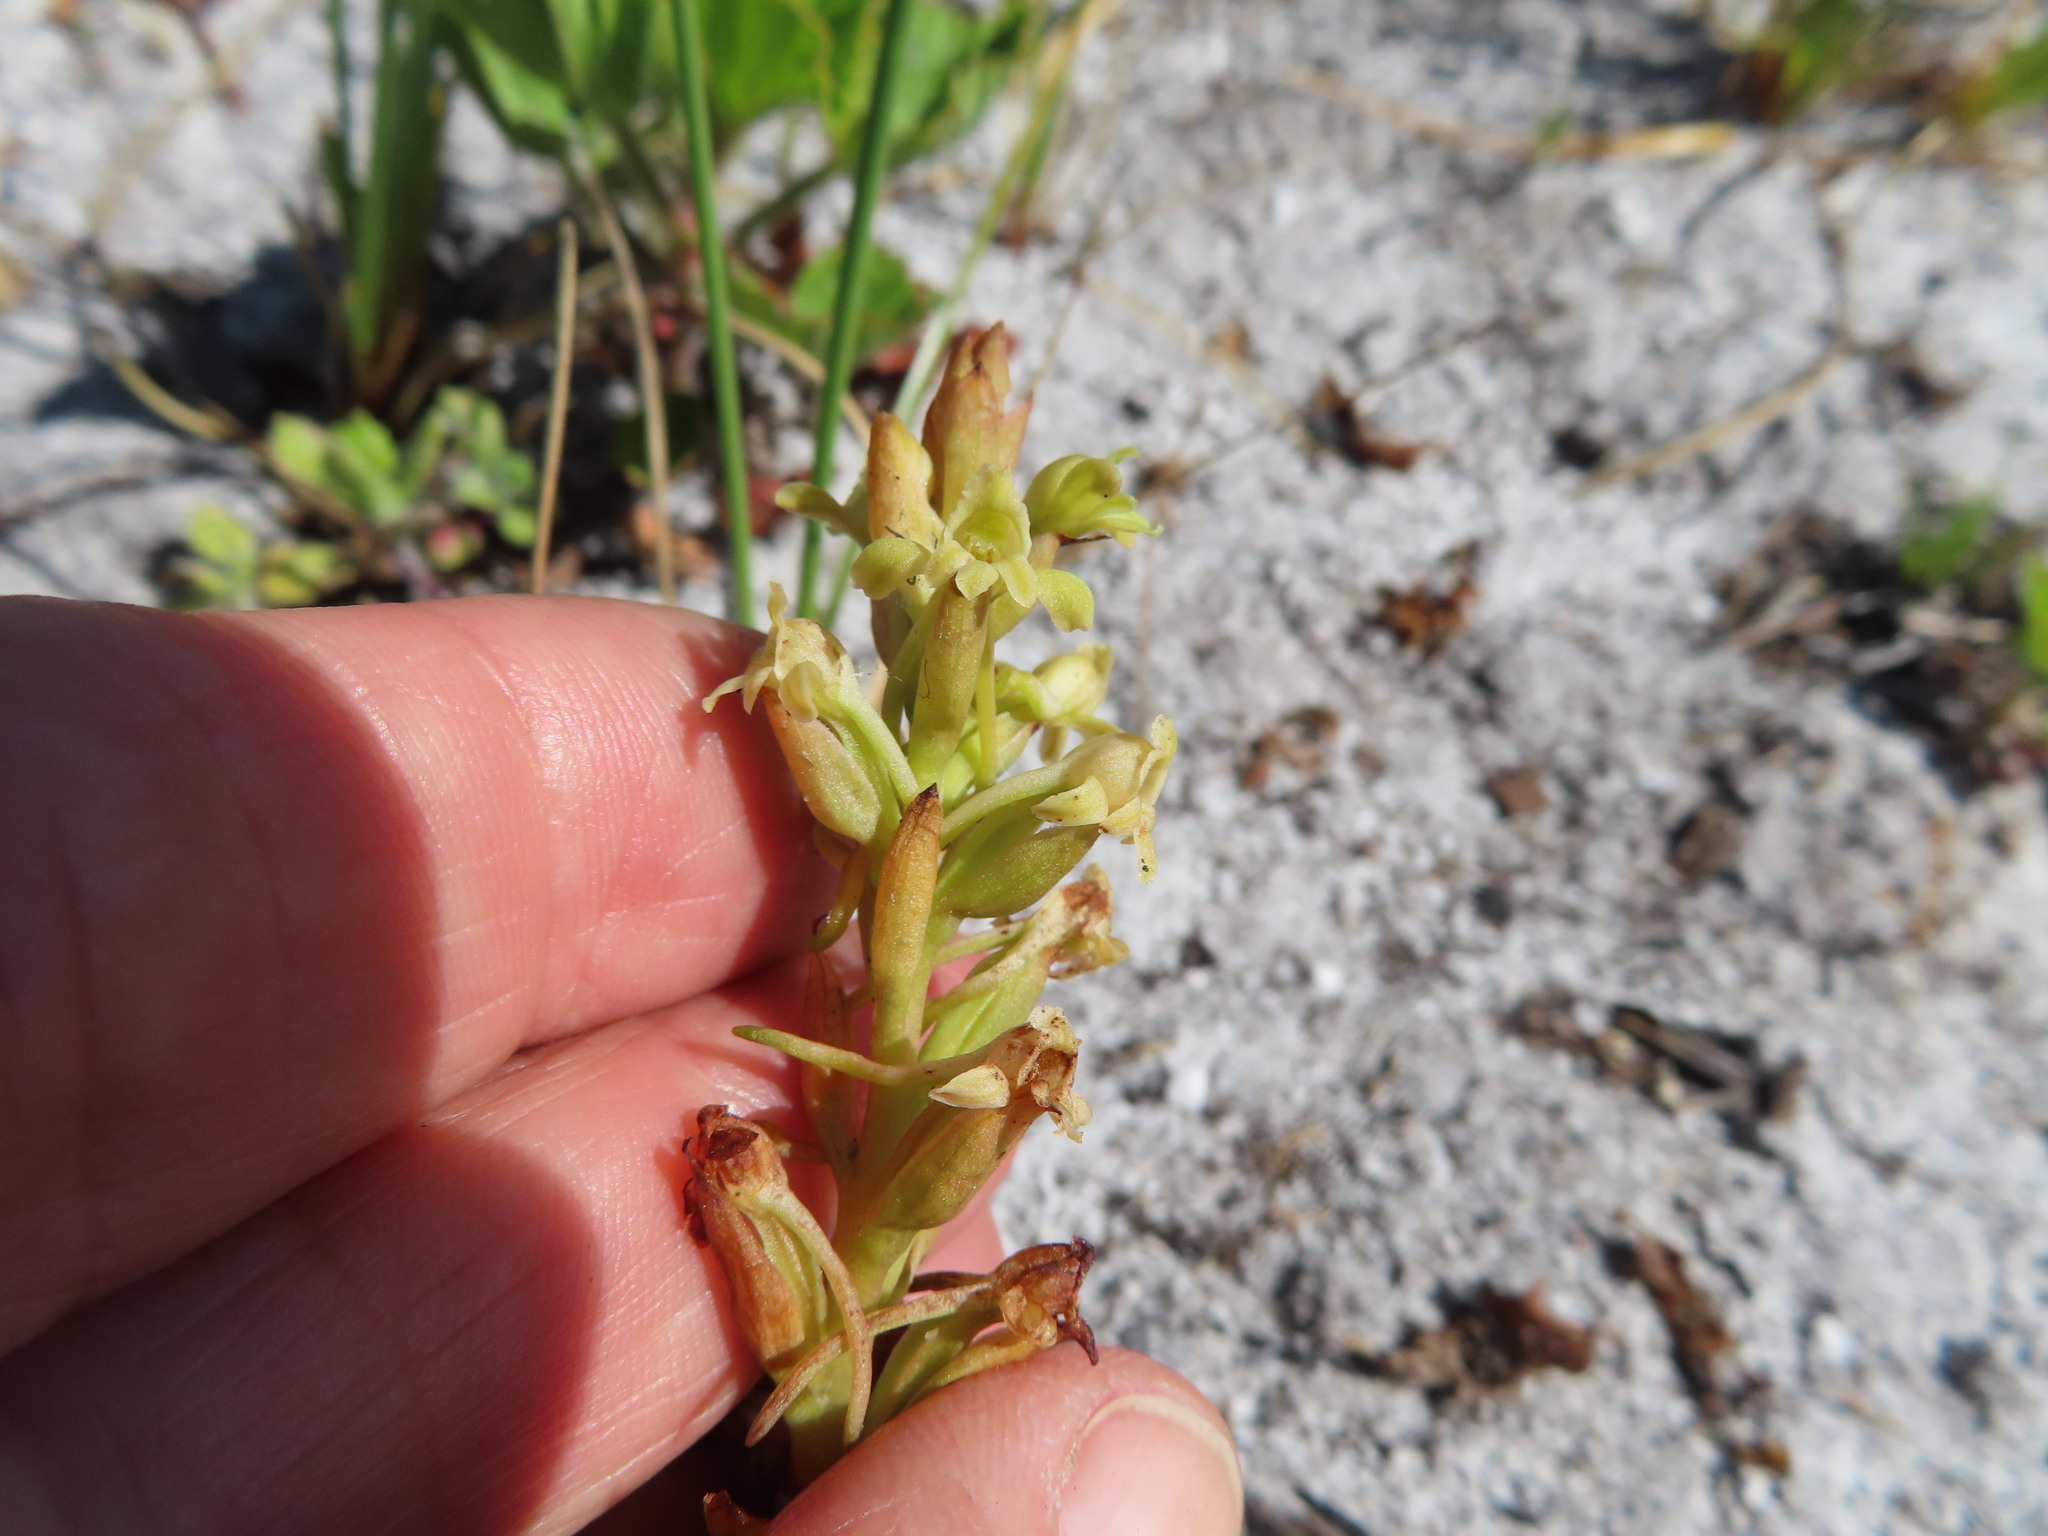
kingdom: Plantae
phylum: Tracheophyta
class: Liliopsida
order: Asparagales
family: Orchidaceae
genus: Satyrium
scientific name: Satyrium humile
